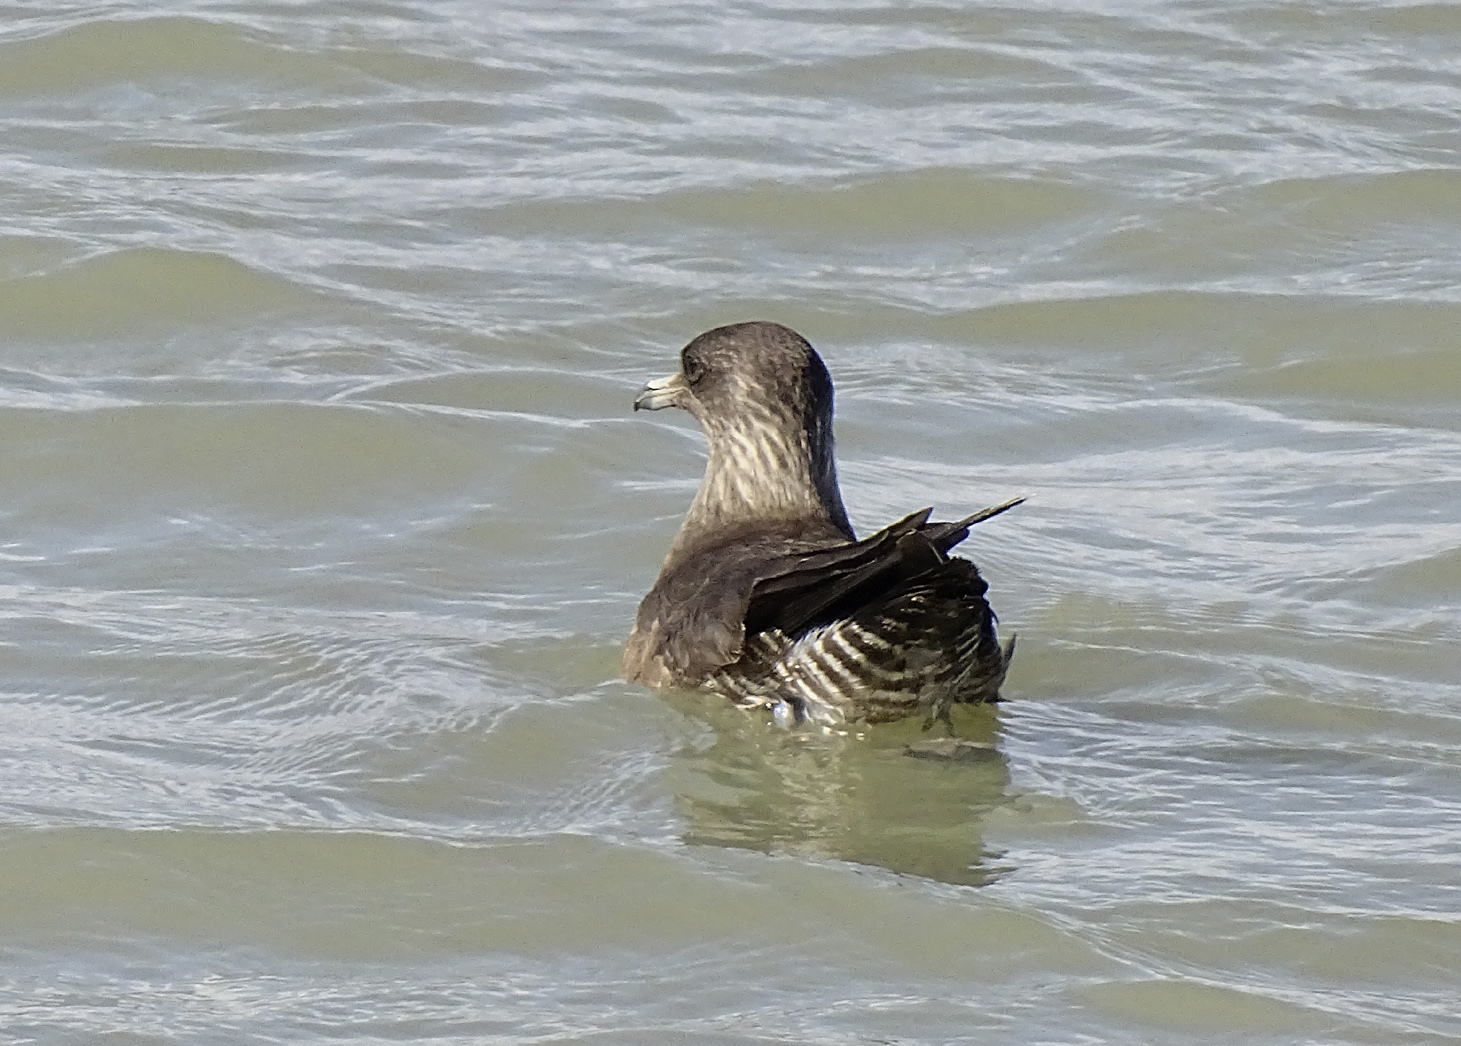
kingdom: Animalia
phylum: Chordata
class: Aves
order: Charadriiformes
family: Stercorariidae
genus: Stercorarius
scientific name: Stercorarius longicaudus
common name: Long-tailed jaeger
